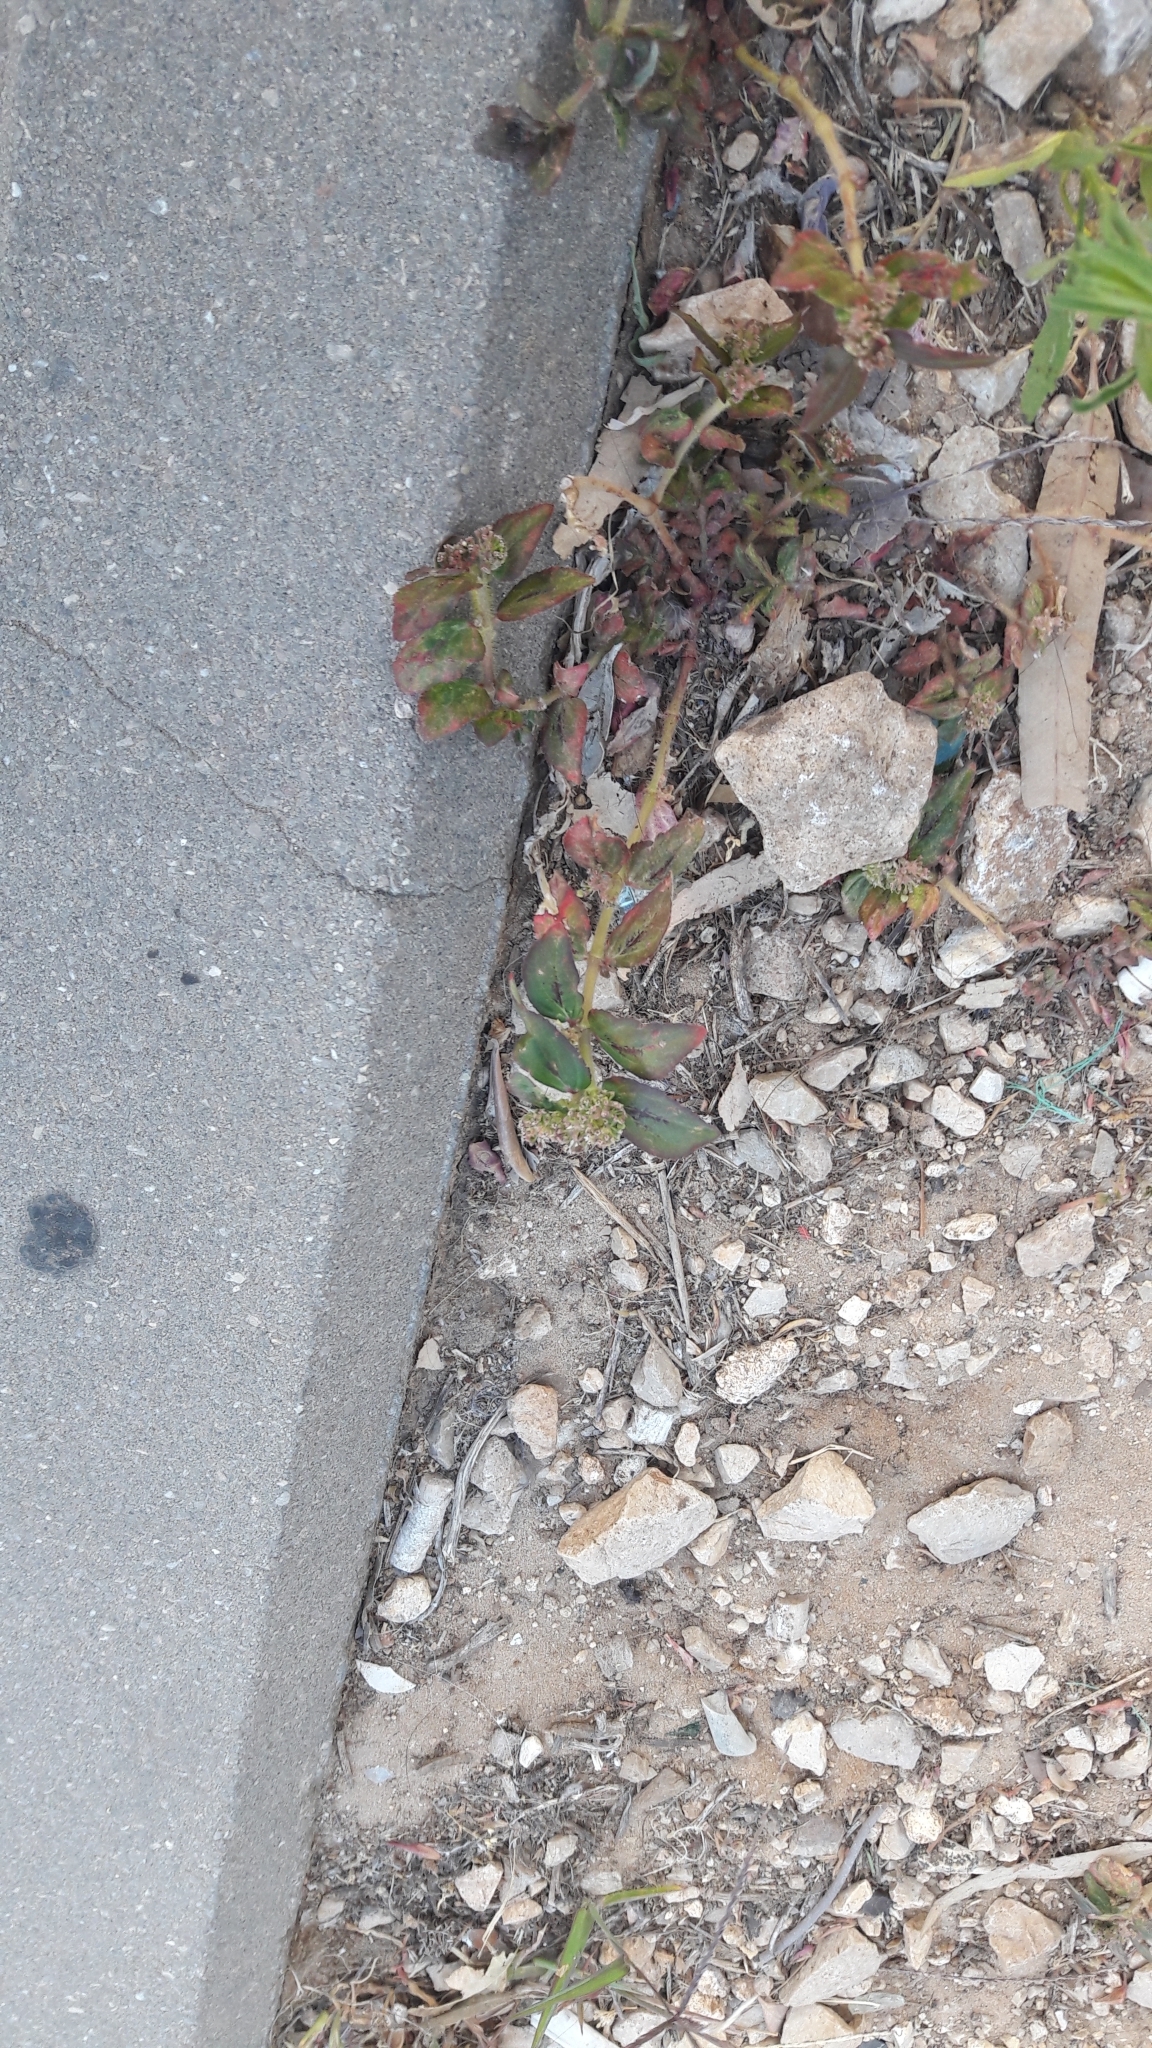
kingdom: Plantae
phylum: Tracheophyta
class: Magnoliopsida
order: Malpighiales
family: Euphorbiaceae
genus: Euphorbia
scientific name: Euphorbia hirta
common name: Pillpod sandmat
